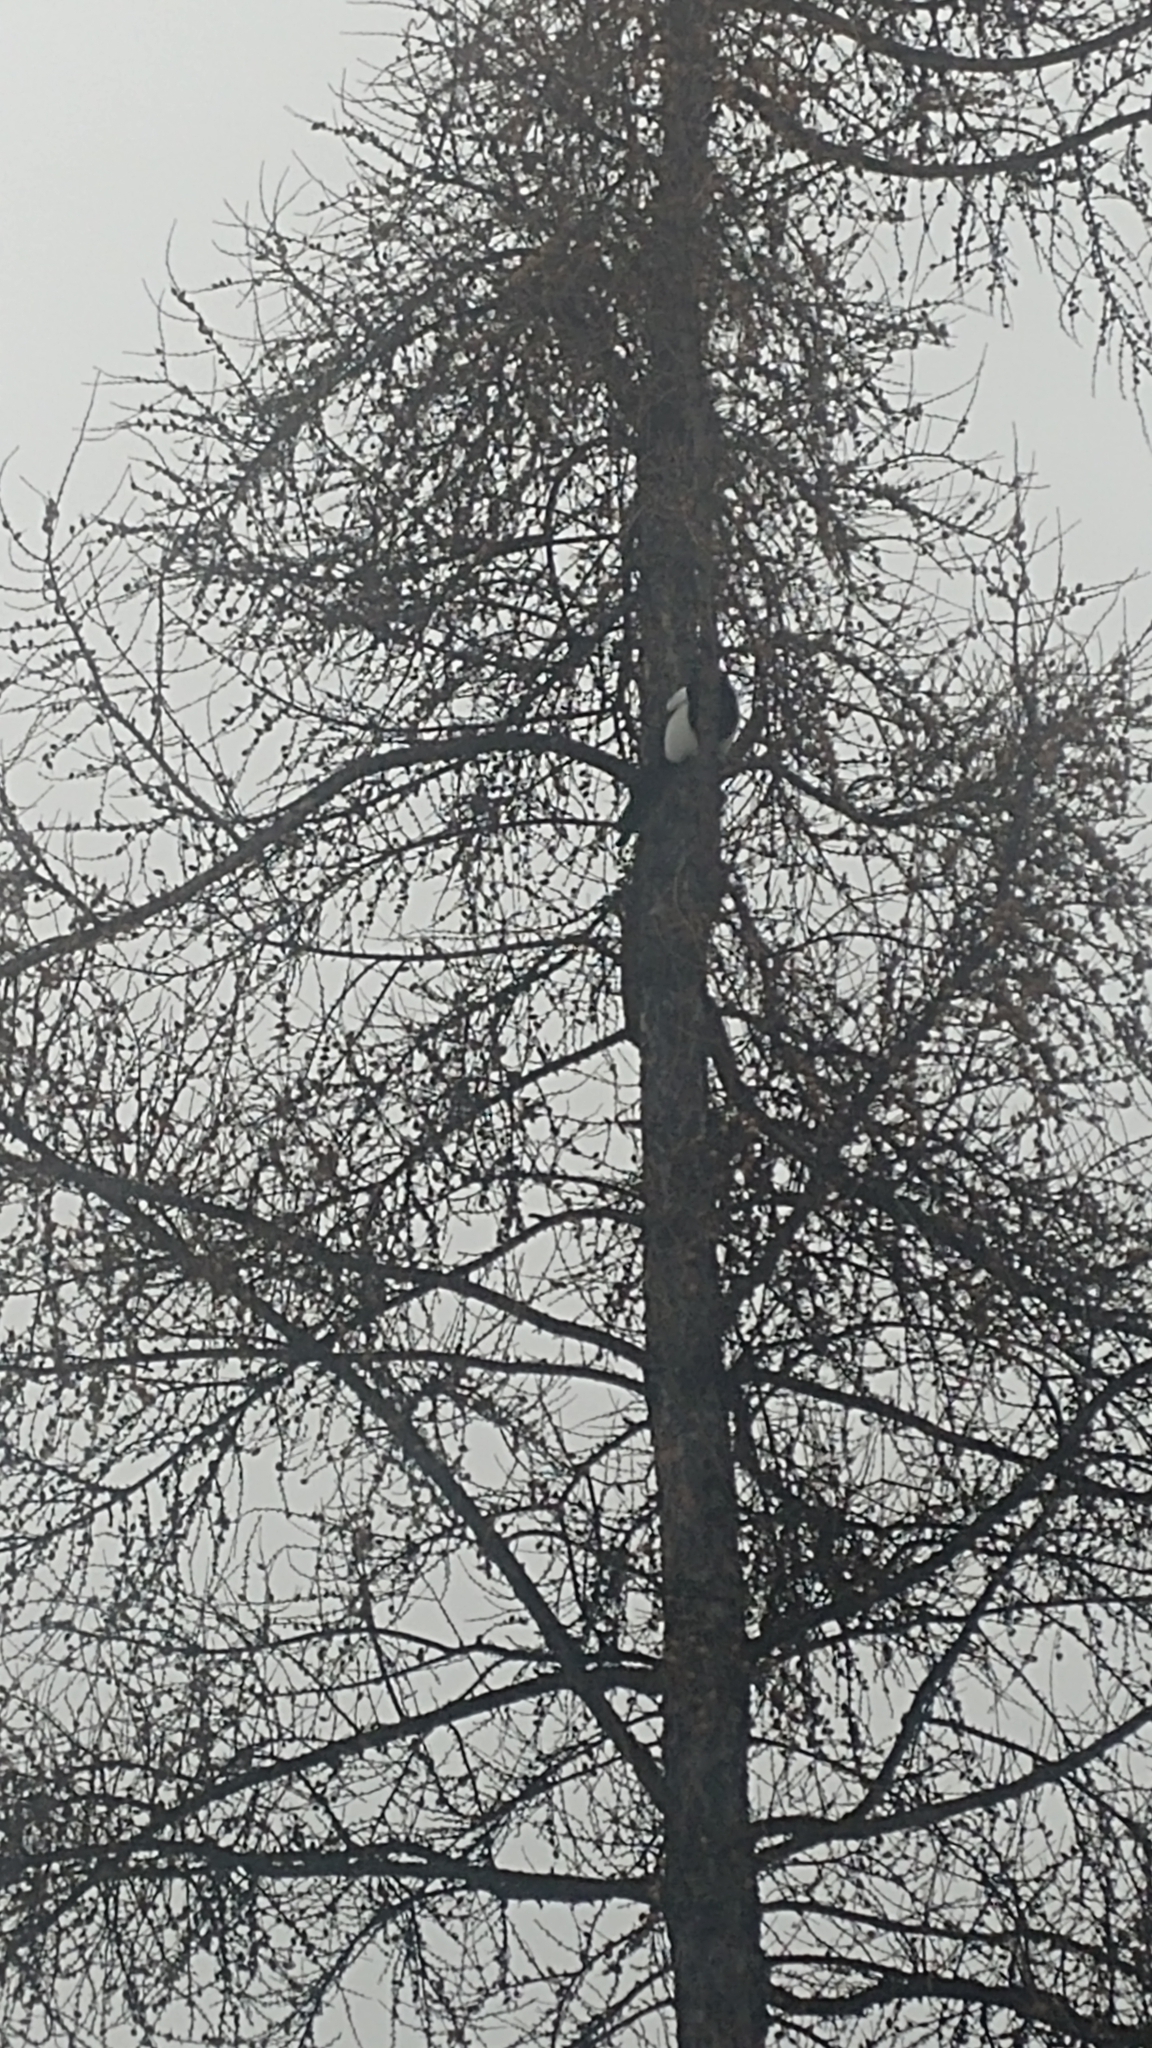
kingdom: Animalia
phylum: Chordata
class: Aves
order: Passeriformes
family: Corvidae
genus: Pica
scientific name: Pica hudsonia
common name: Black-billed magpie
